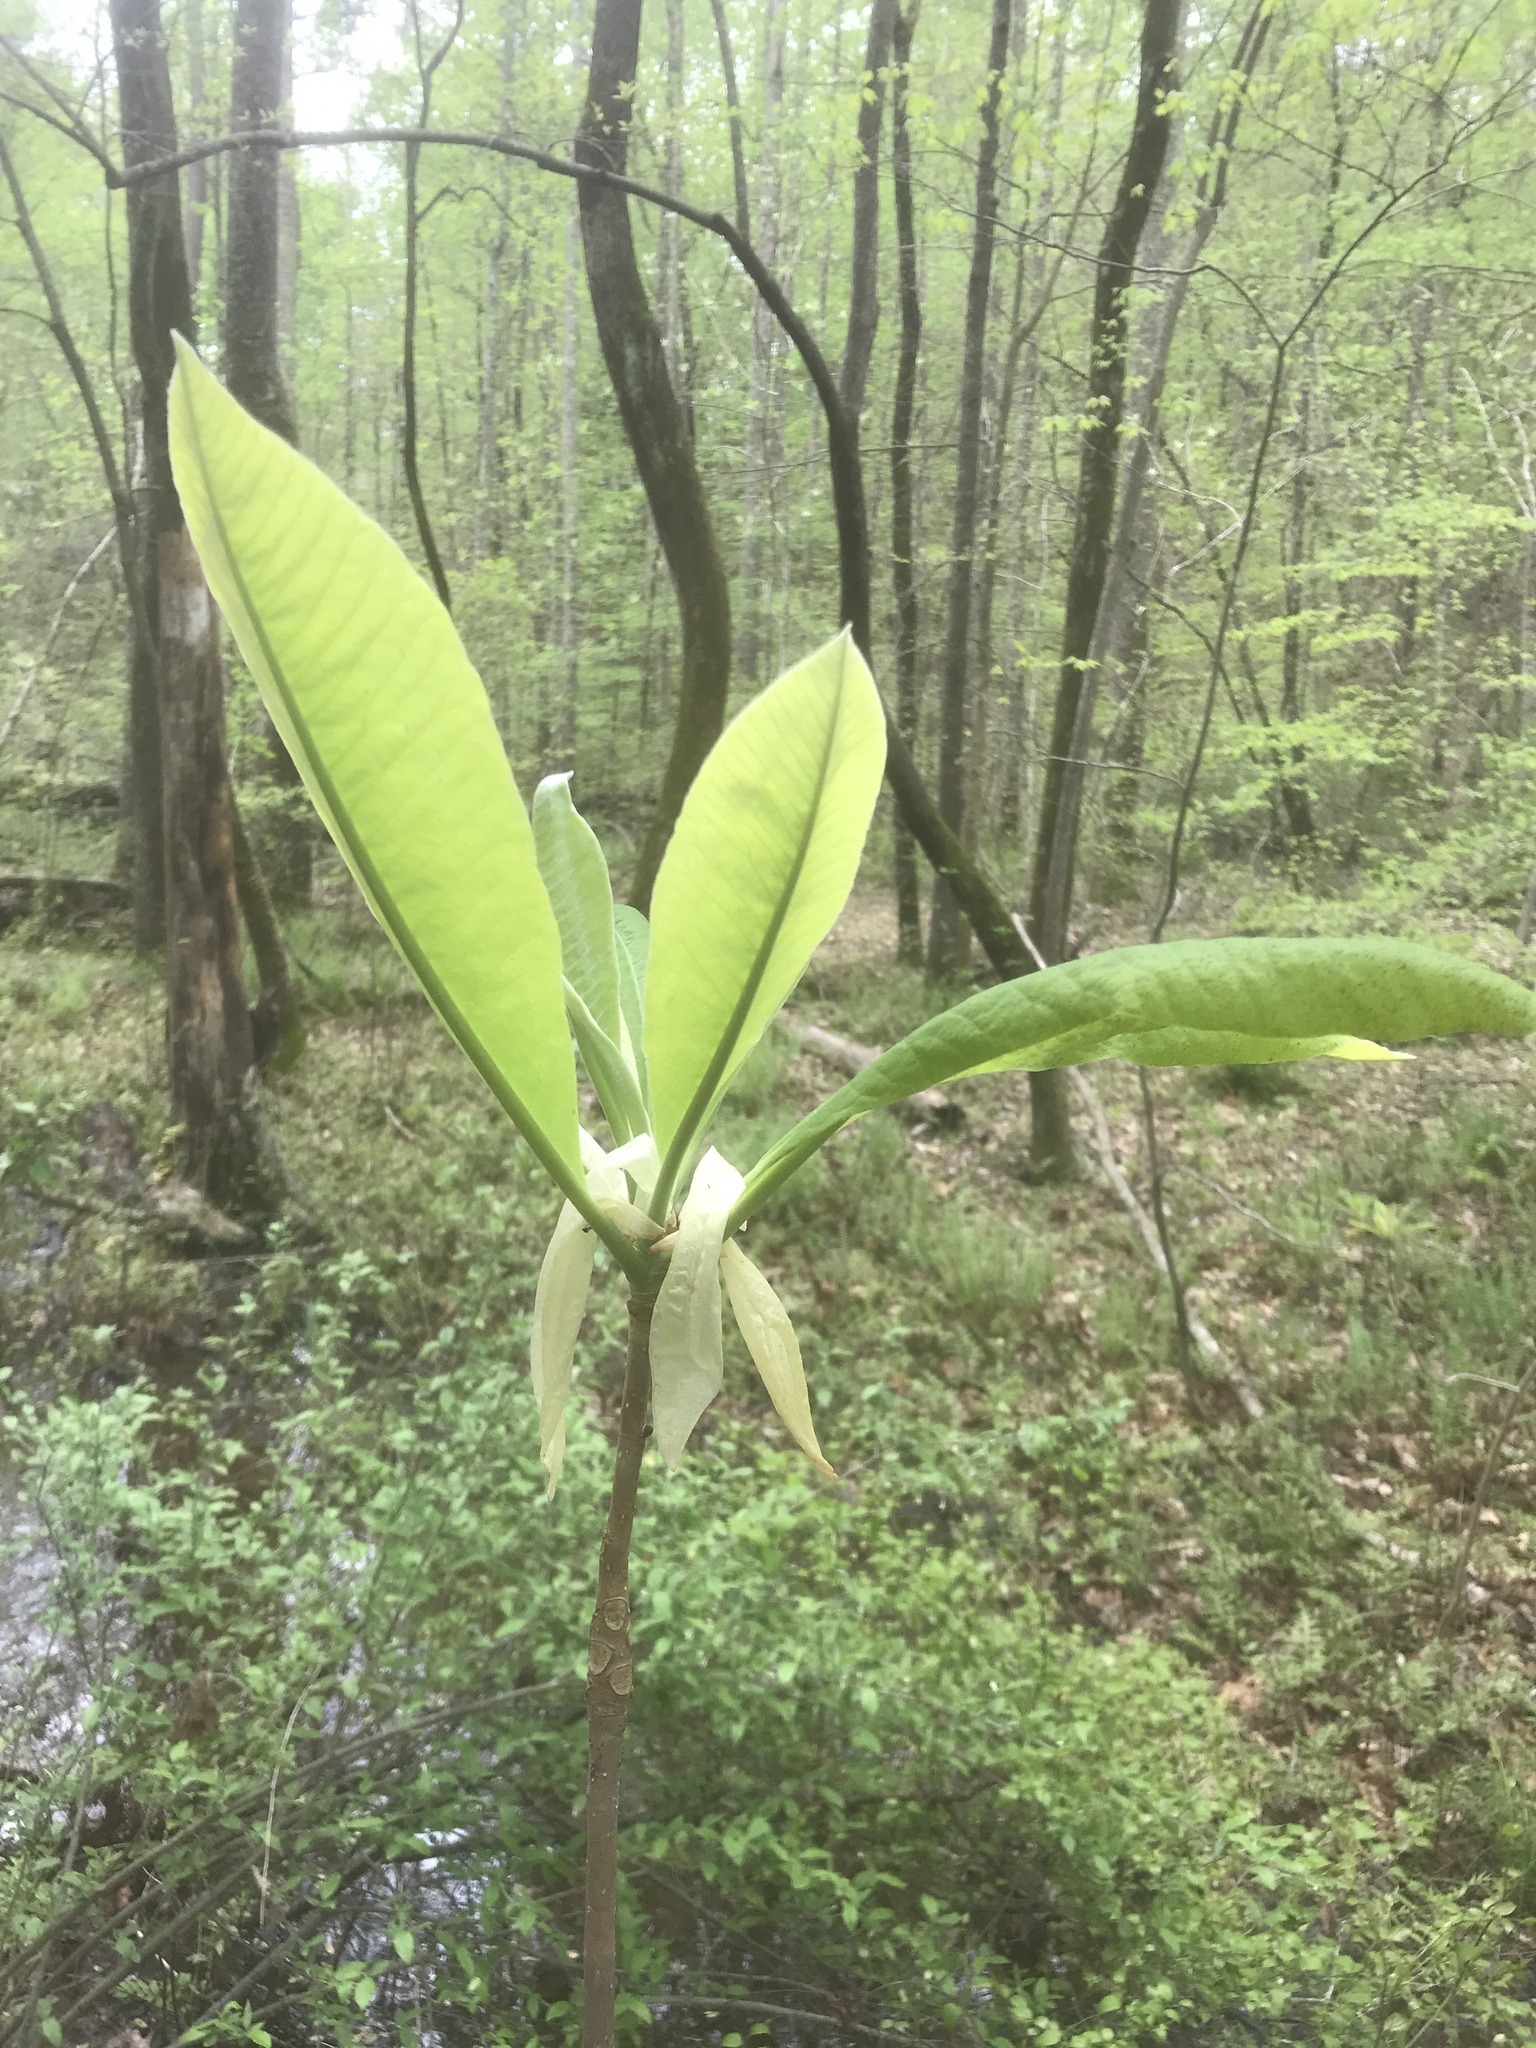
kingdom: Plantae
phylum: Tracheophyta
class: Magnoliopsida
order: Magnoliales
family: Magnoliaceae
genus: Magnolia
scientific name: Magnolia tripetala
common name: Umbrella magnolia
